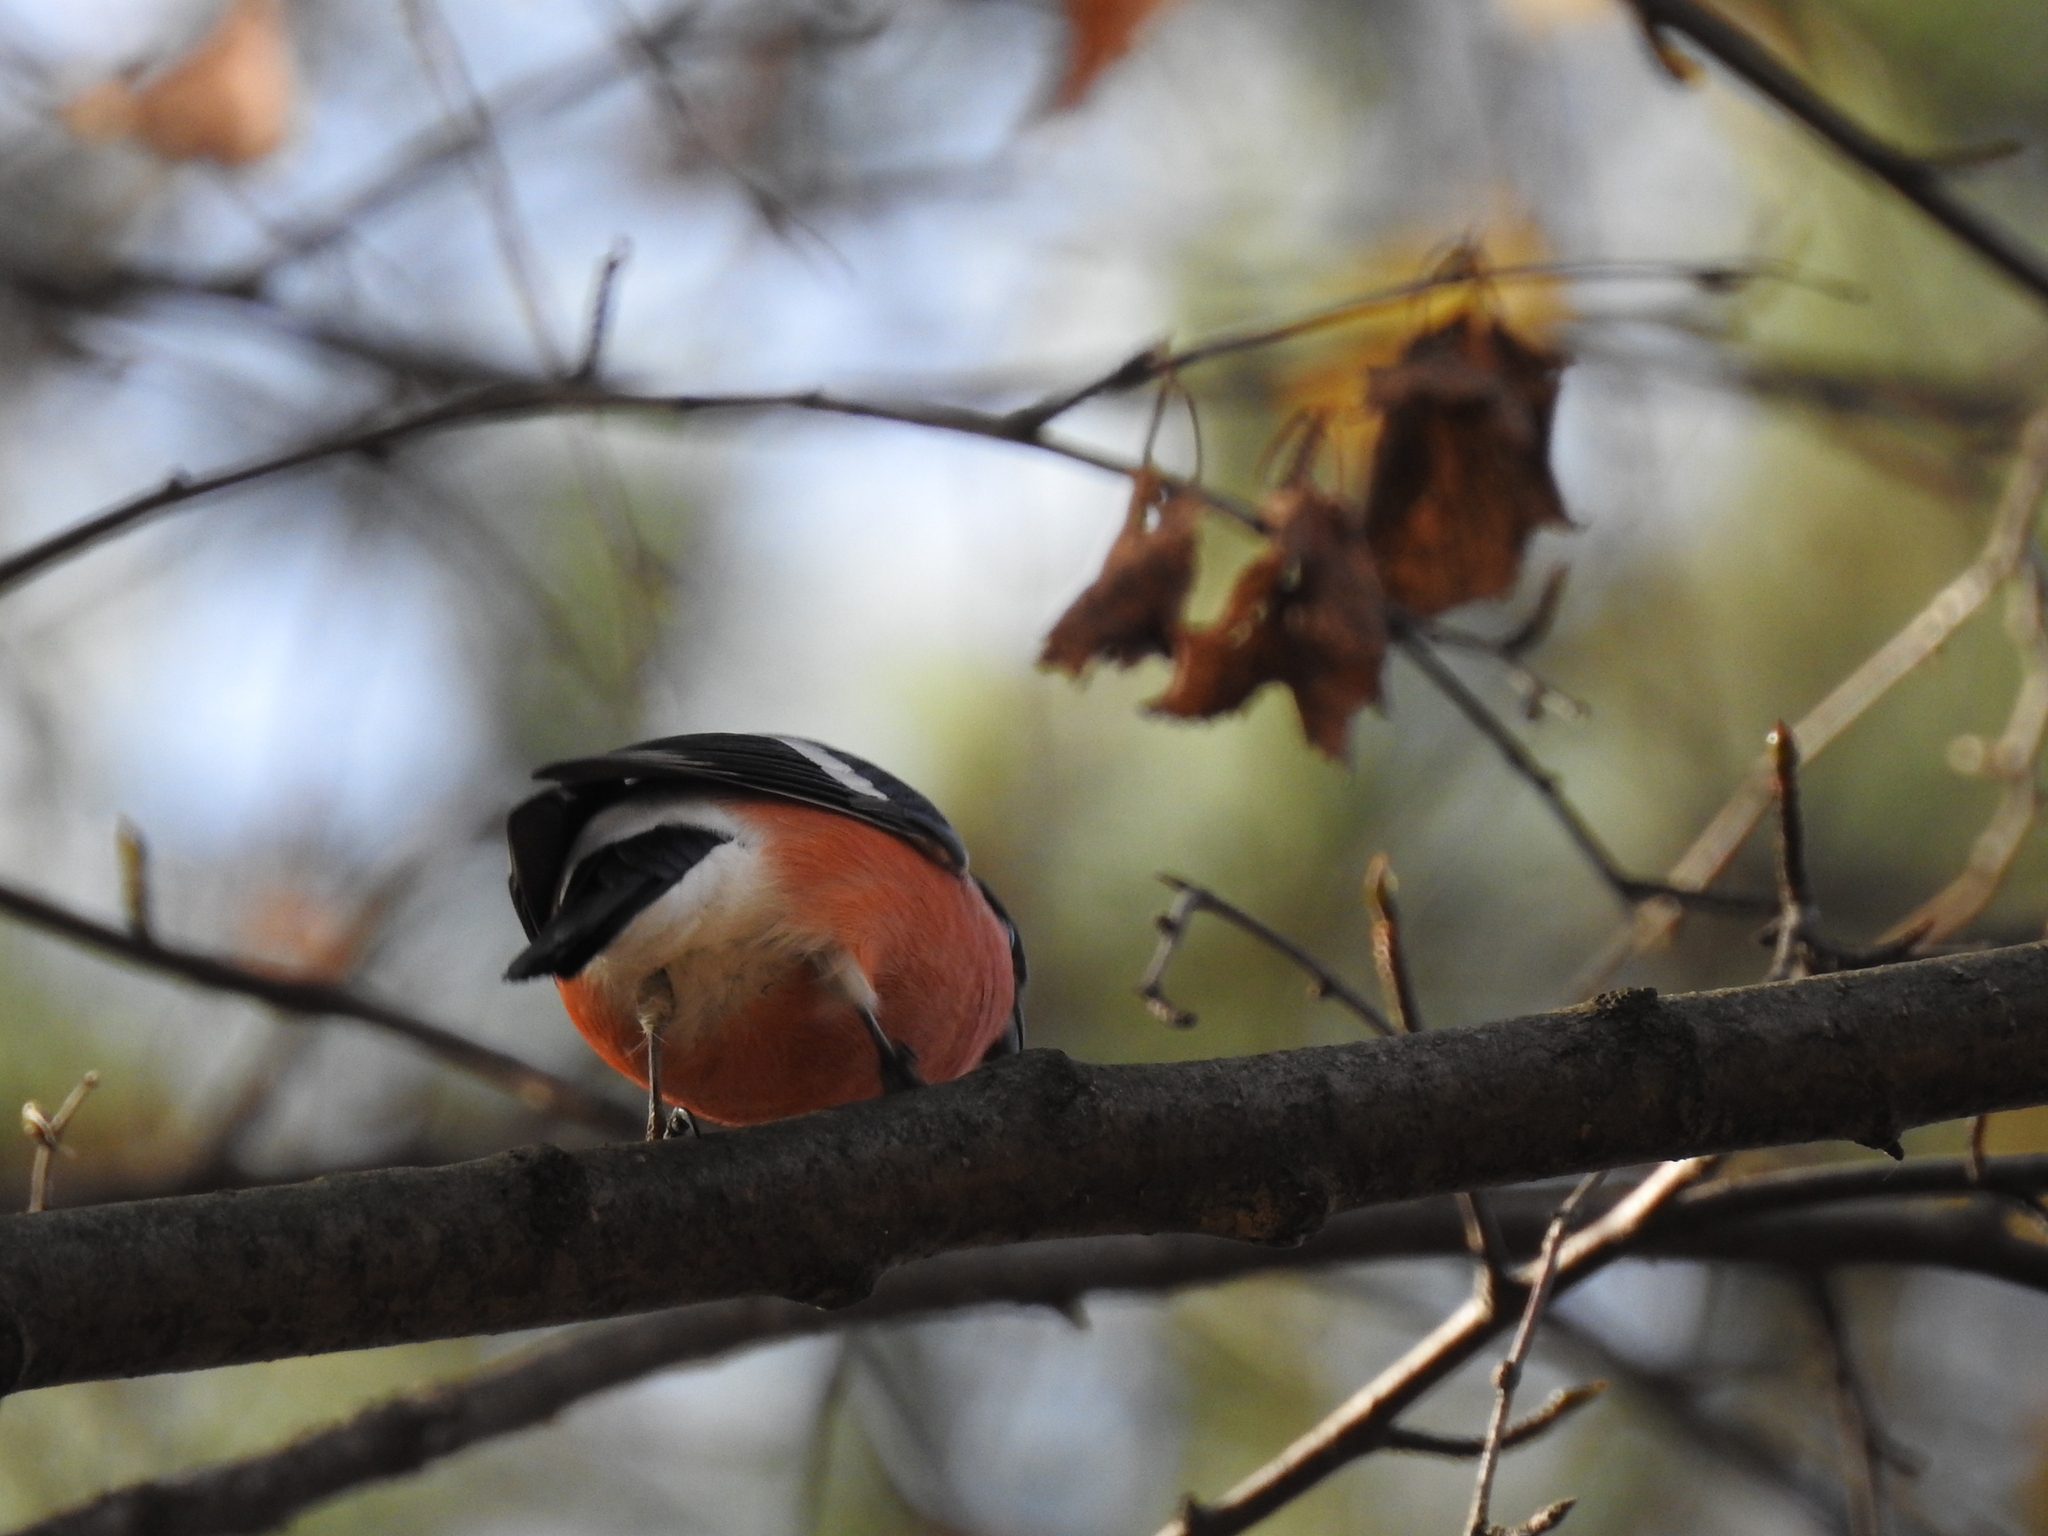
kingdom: Animalia
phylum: Chordata
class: Aves
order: Passeriformes
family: Fringillidae
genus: Pyrrhula
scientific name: Pyrrhula pyrrhula
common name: Eurasian bullfinch
